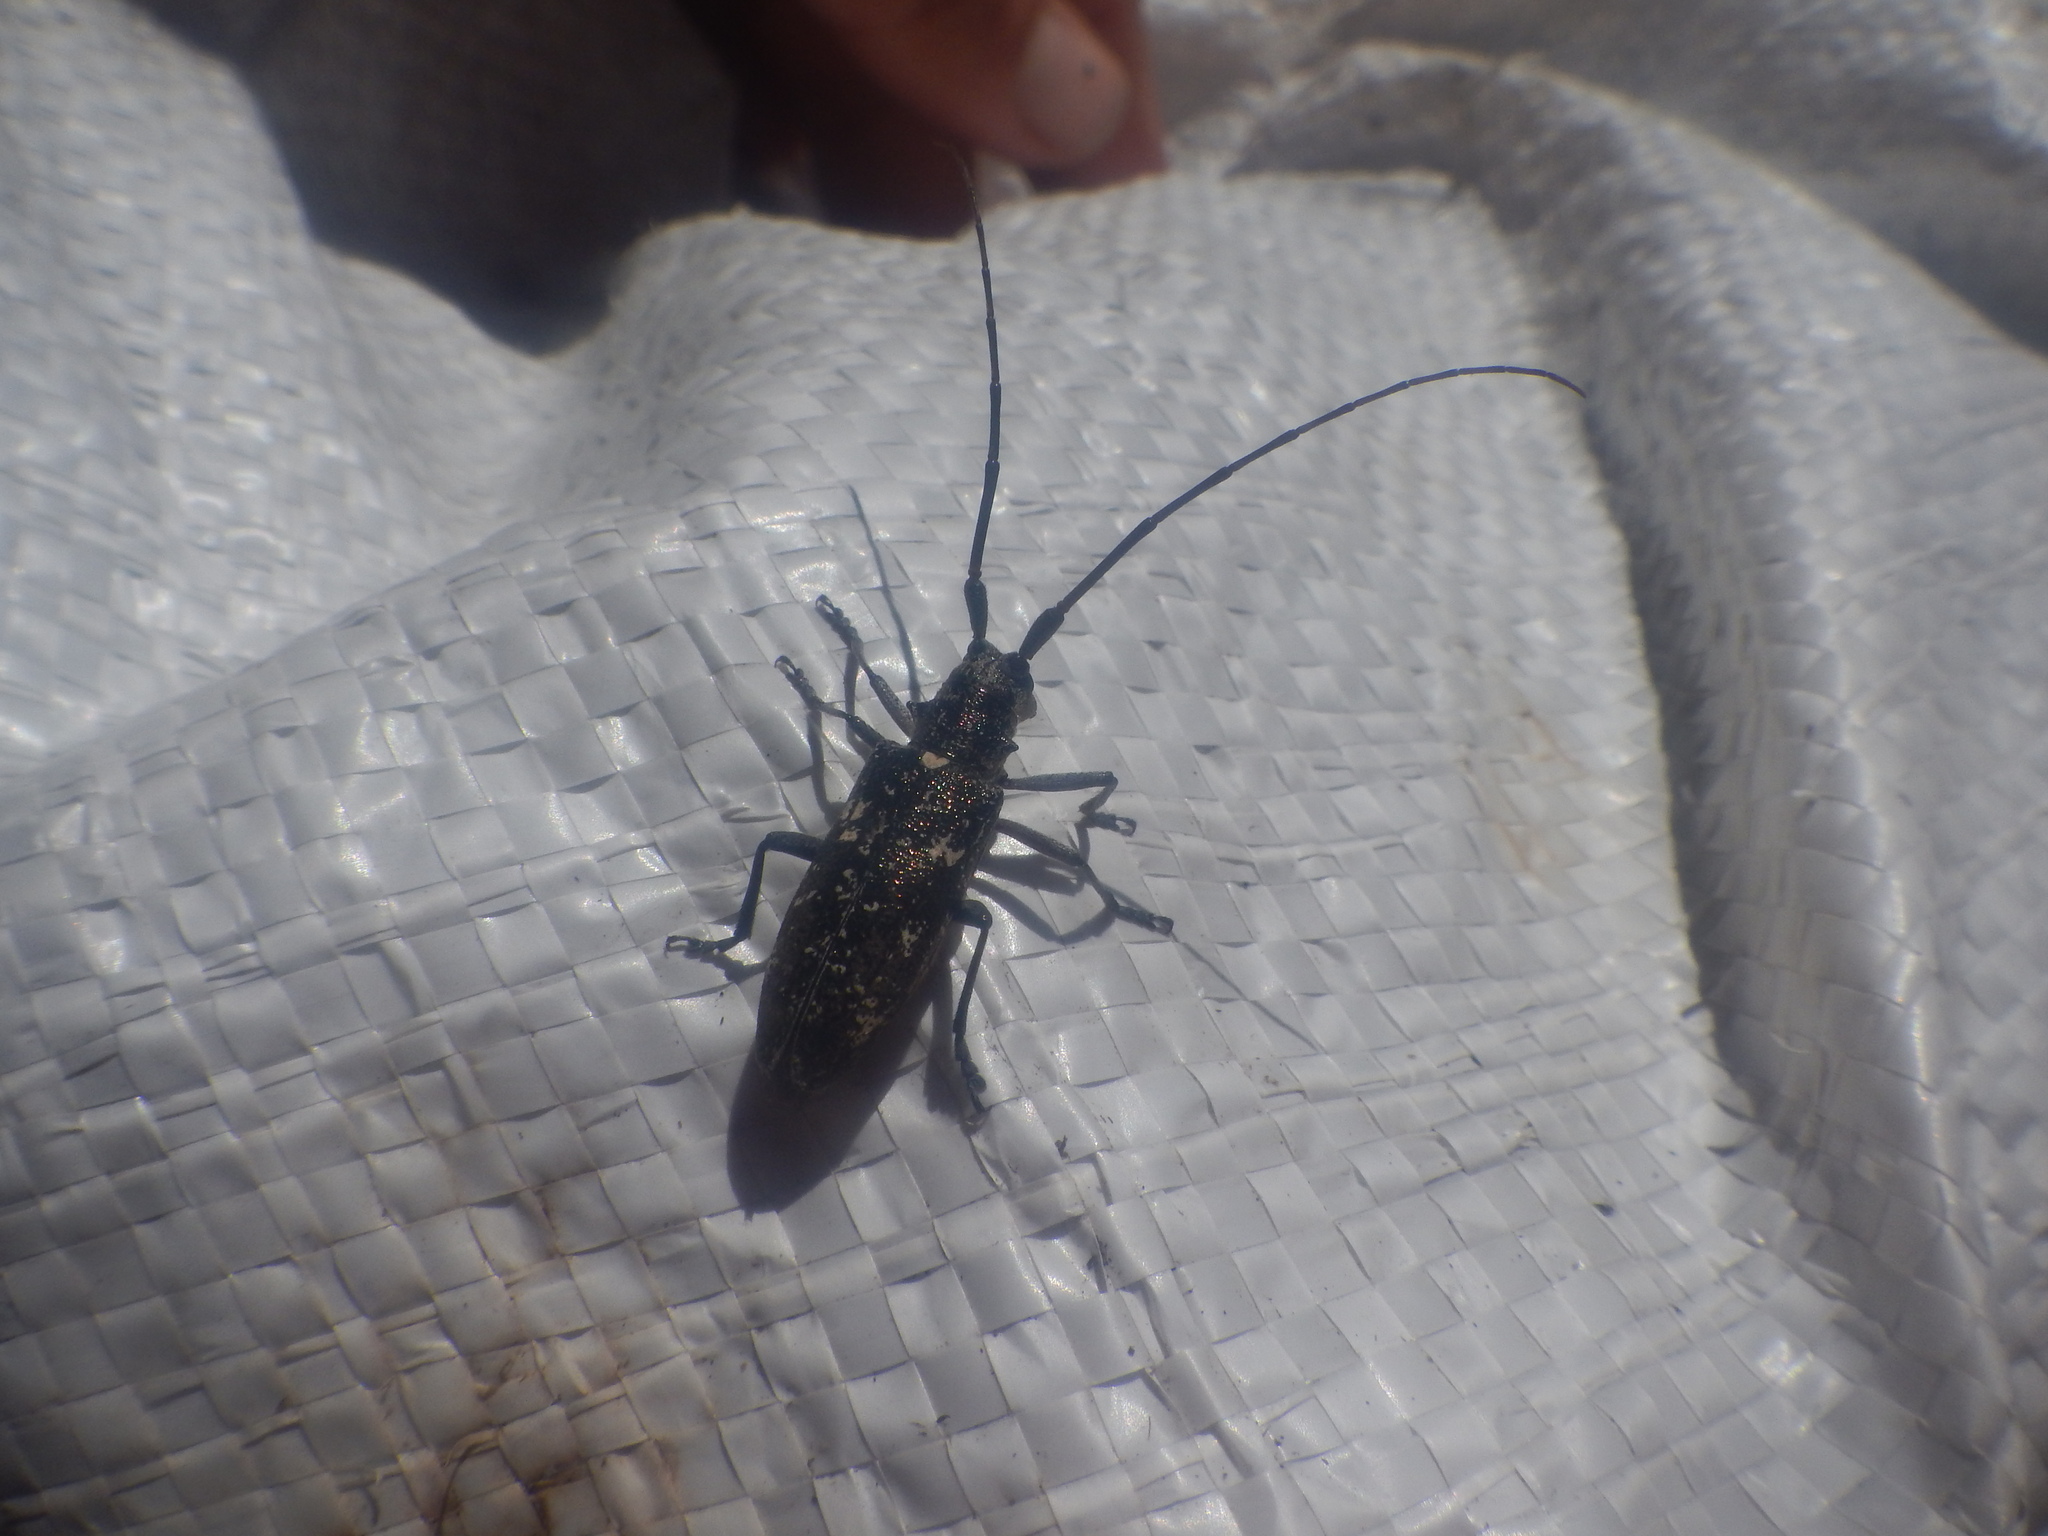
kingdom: Animalia
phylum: Arthropoda
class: Insecta
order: Coleoptera
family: Cerambycidae
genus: Monochamus
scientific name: Monochamus scutellatus
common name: White-spotted sawyer beetle
